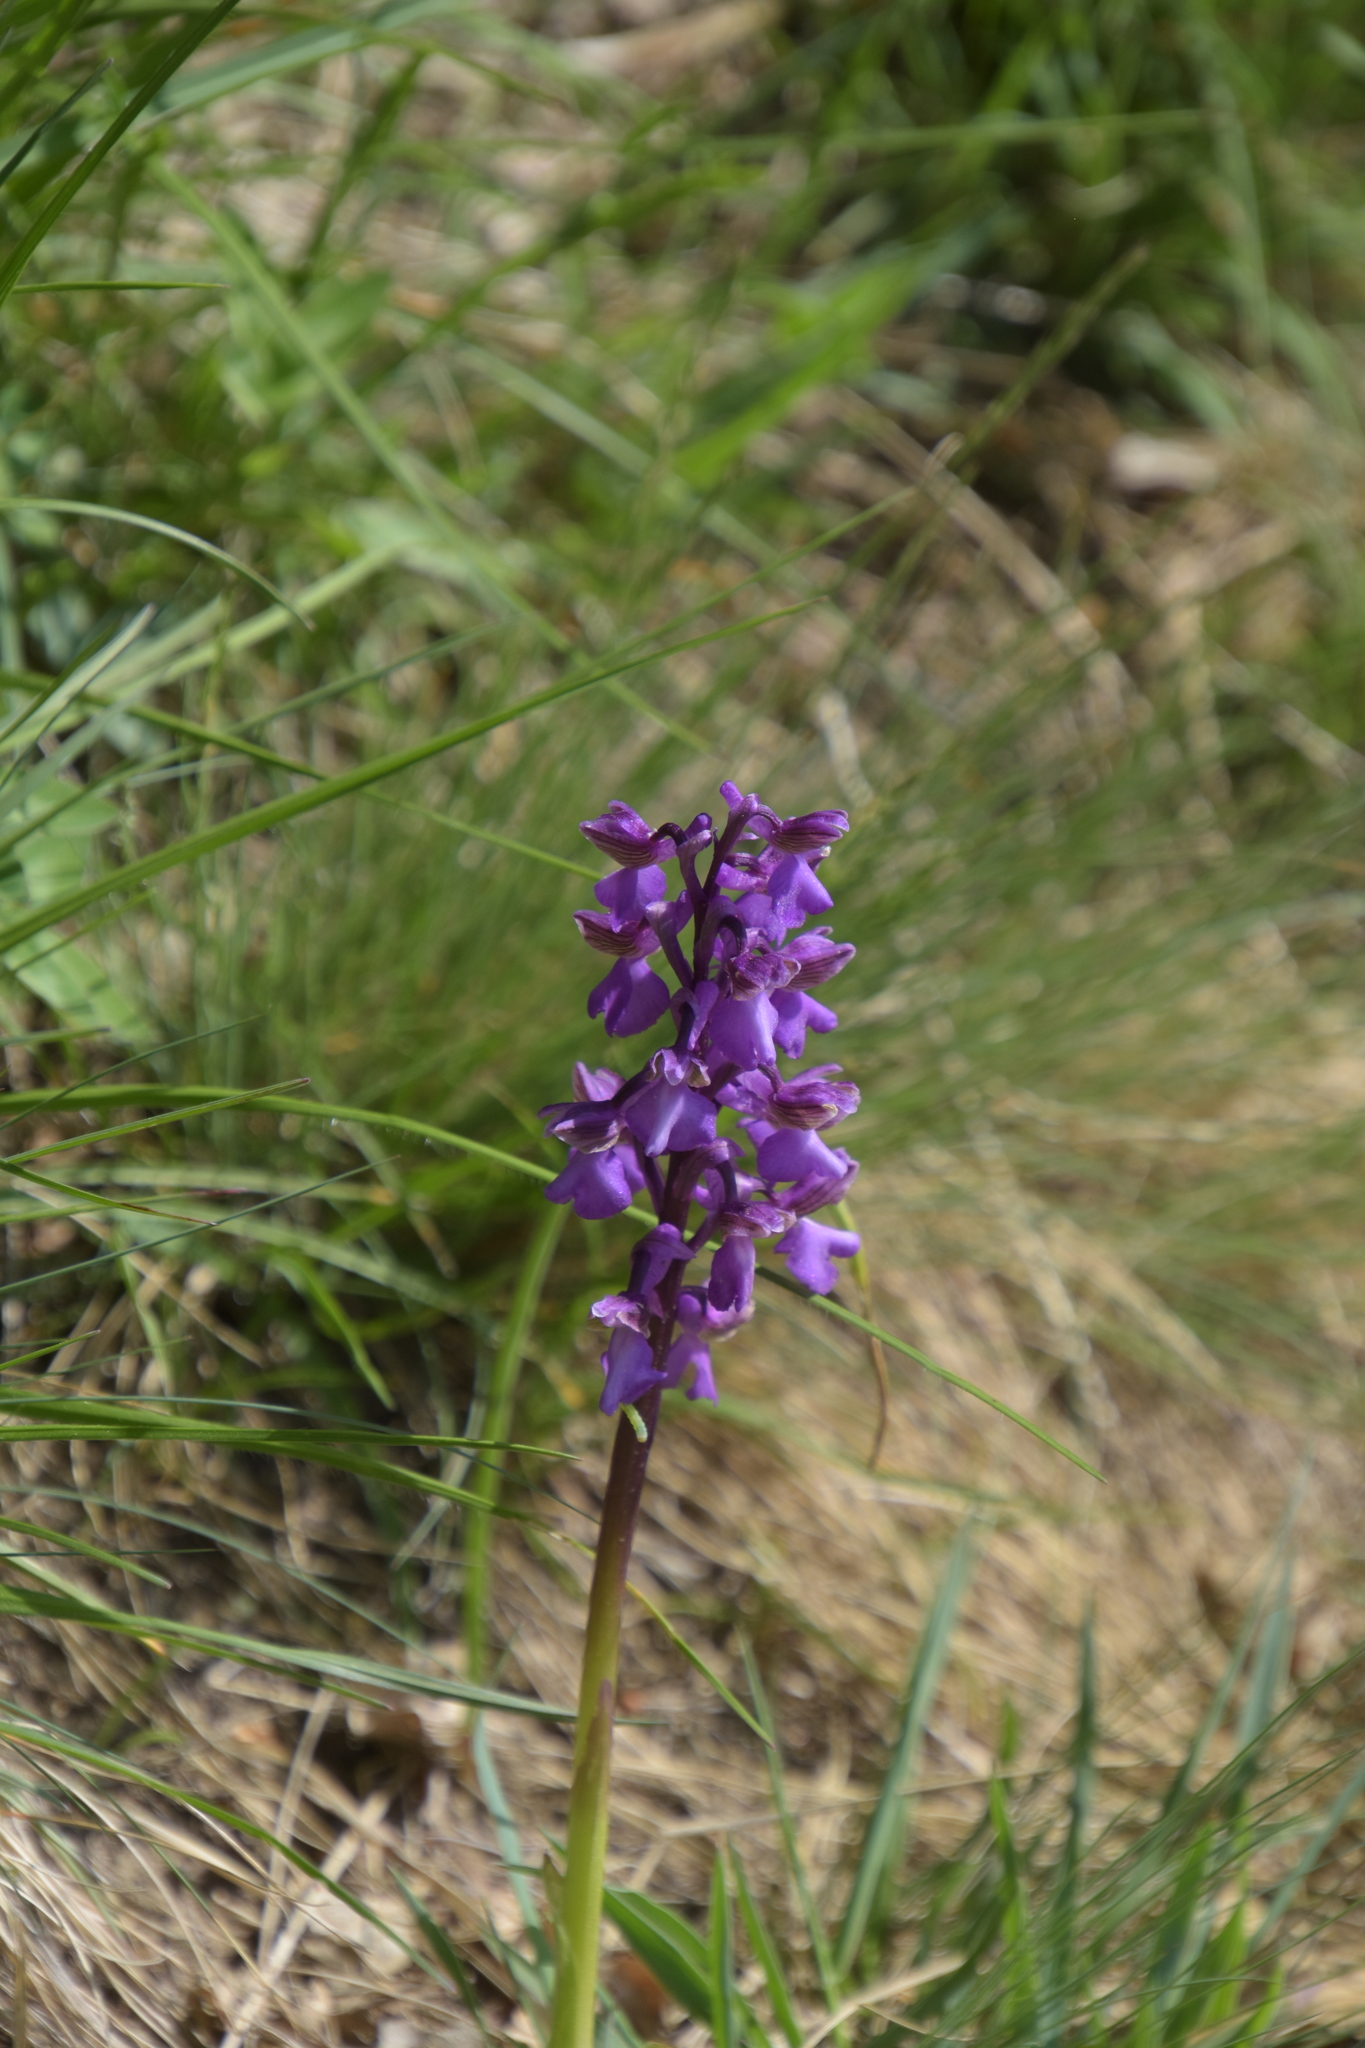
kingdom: Plantae
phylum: Tracheophyta
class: Liliopsida
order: Asparagales
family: Orchidaceae
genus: Anacamptis
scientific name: Anacamptis morio
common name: Green-winged orchid
